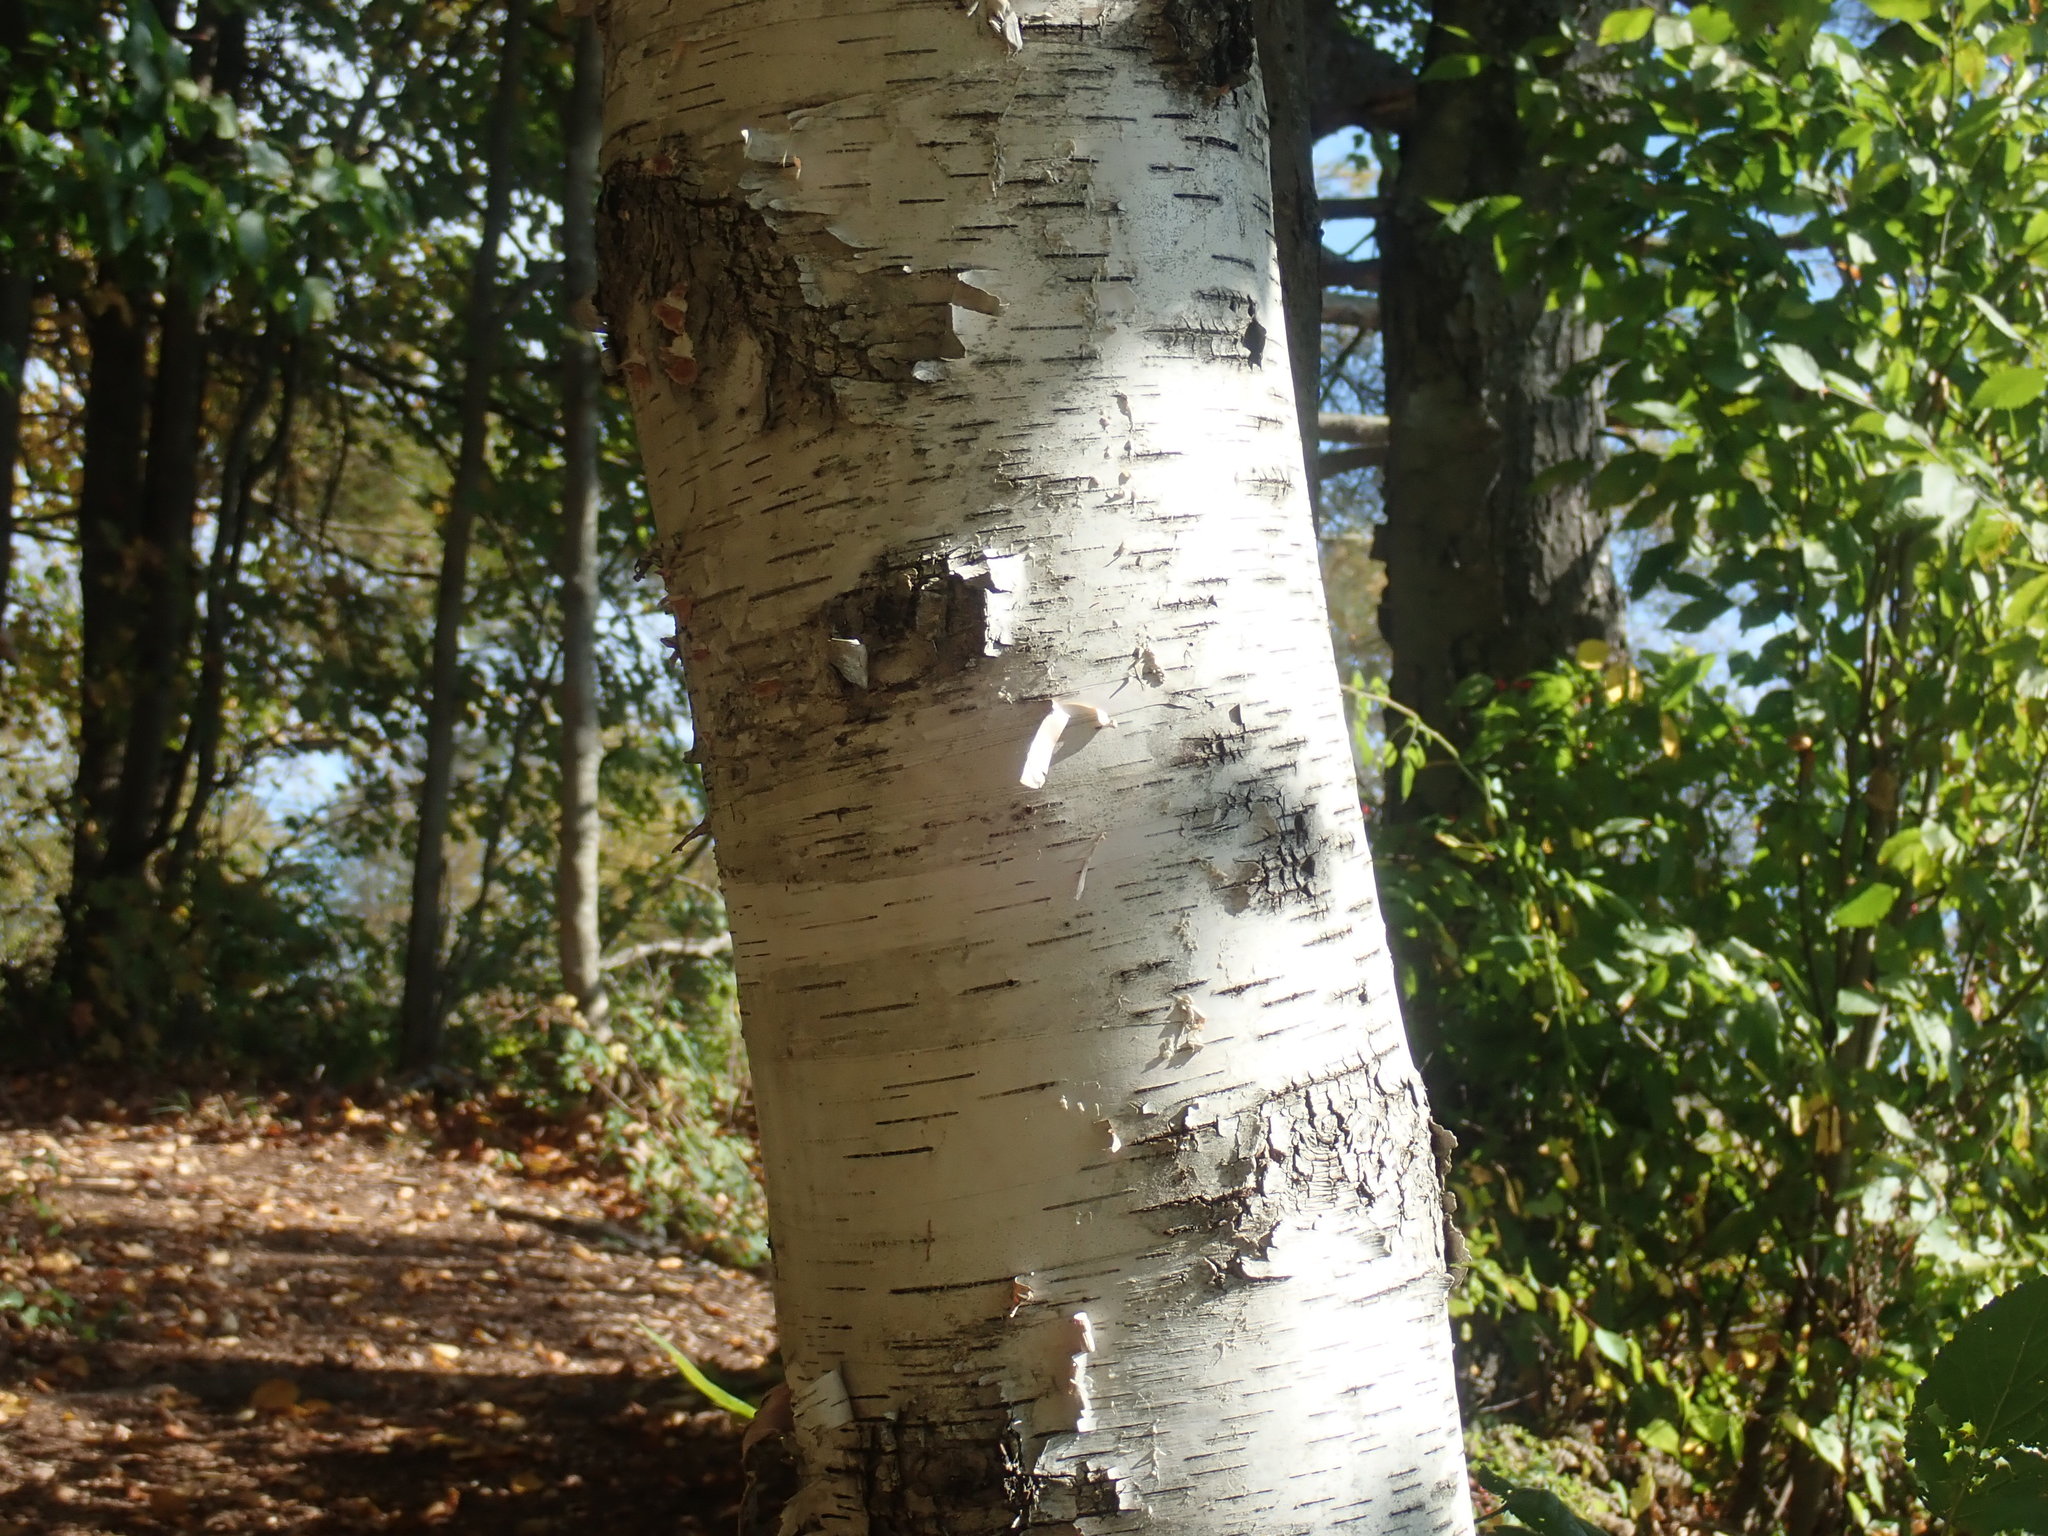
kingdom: Plantae
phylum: Tracheophyta
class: Magnoliopsida
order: Fagales
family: Betulaceae
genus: Betula
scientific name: Betula papyrifera
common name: Paper birch
